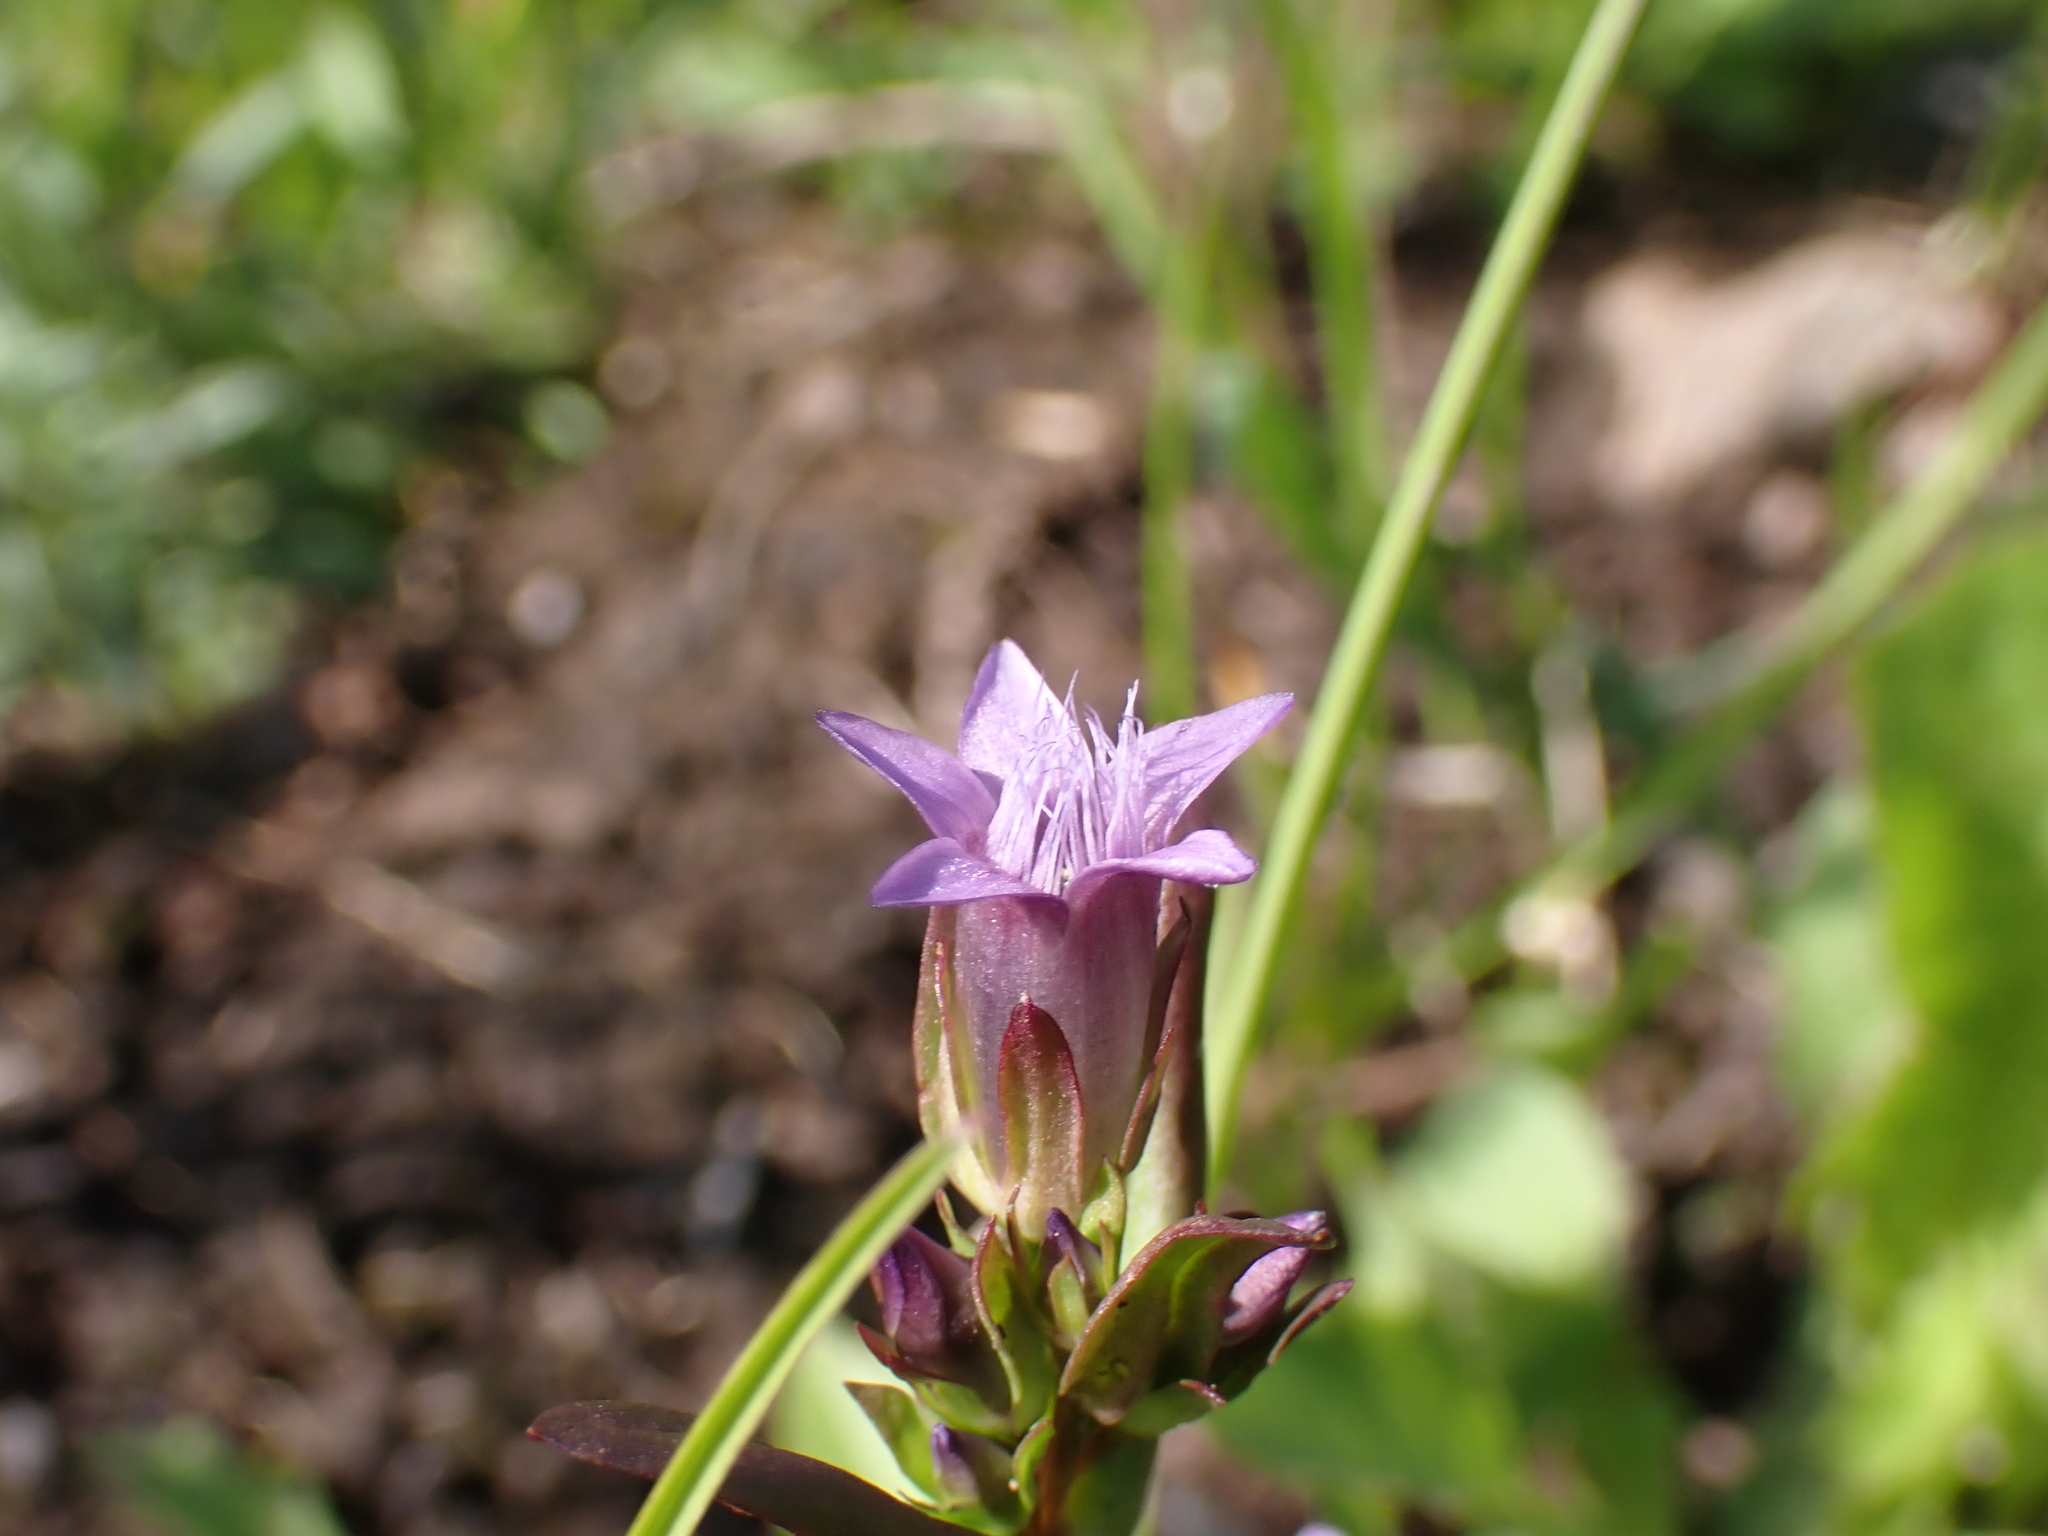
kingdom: Plantae
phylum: Tracheophyta
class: Magnoliopsida
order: Gentianales
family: Gentianaceae
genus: Gentianella
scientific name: Gentianella amarella
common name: Autumn gentian
